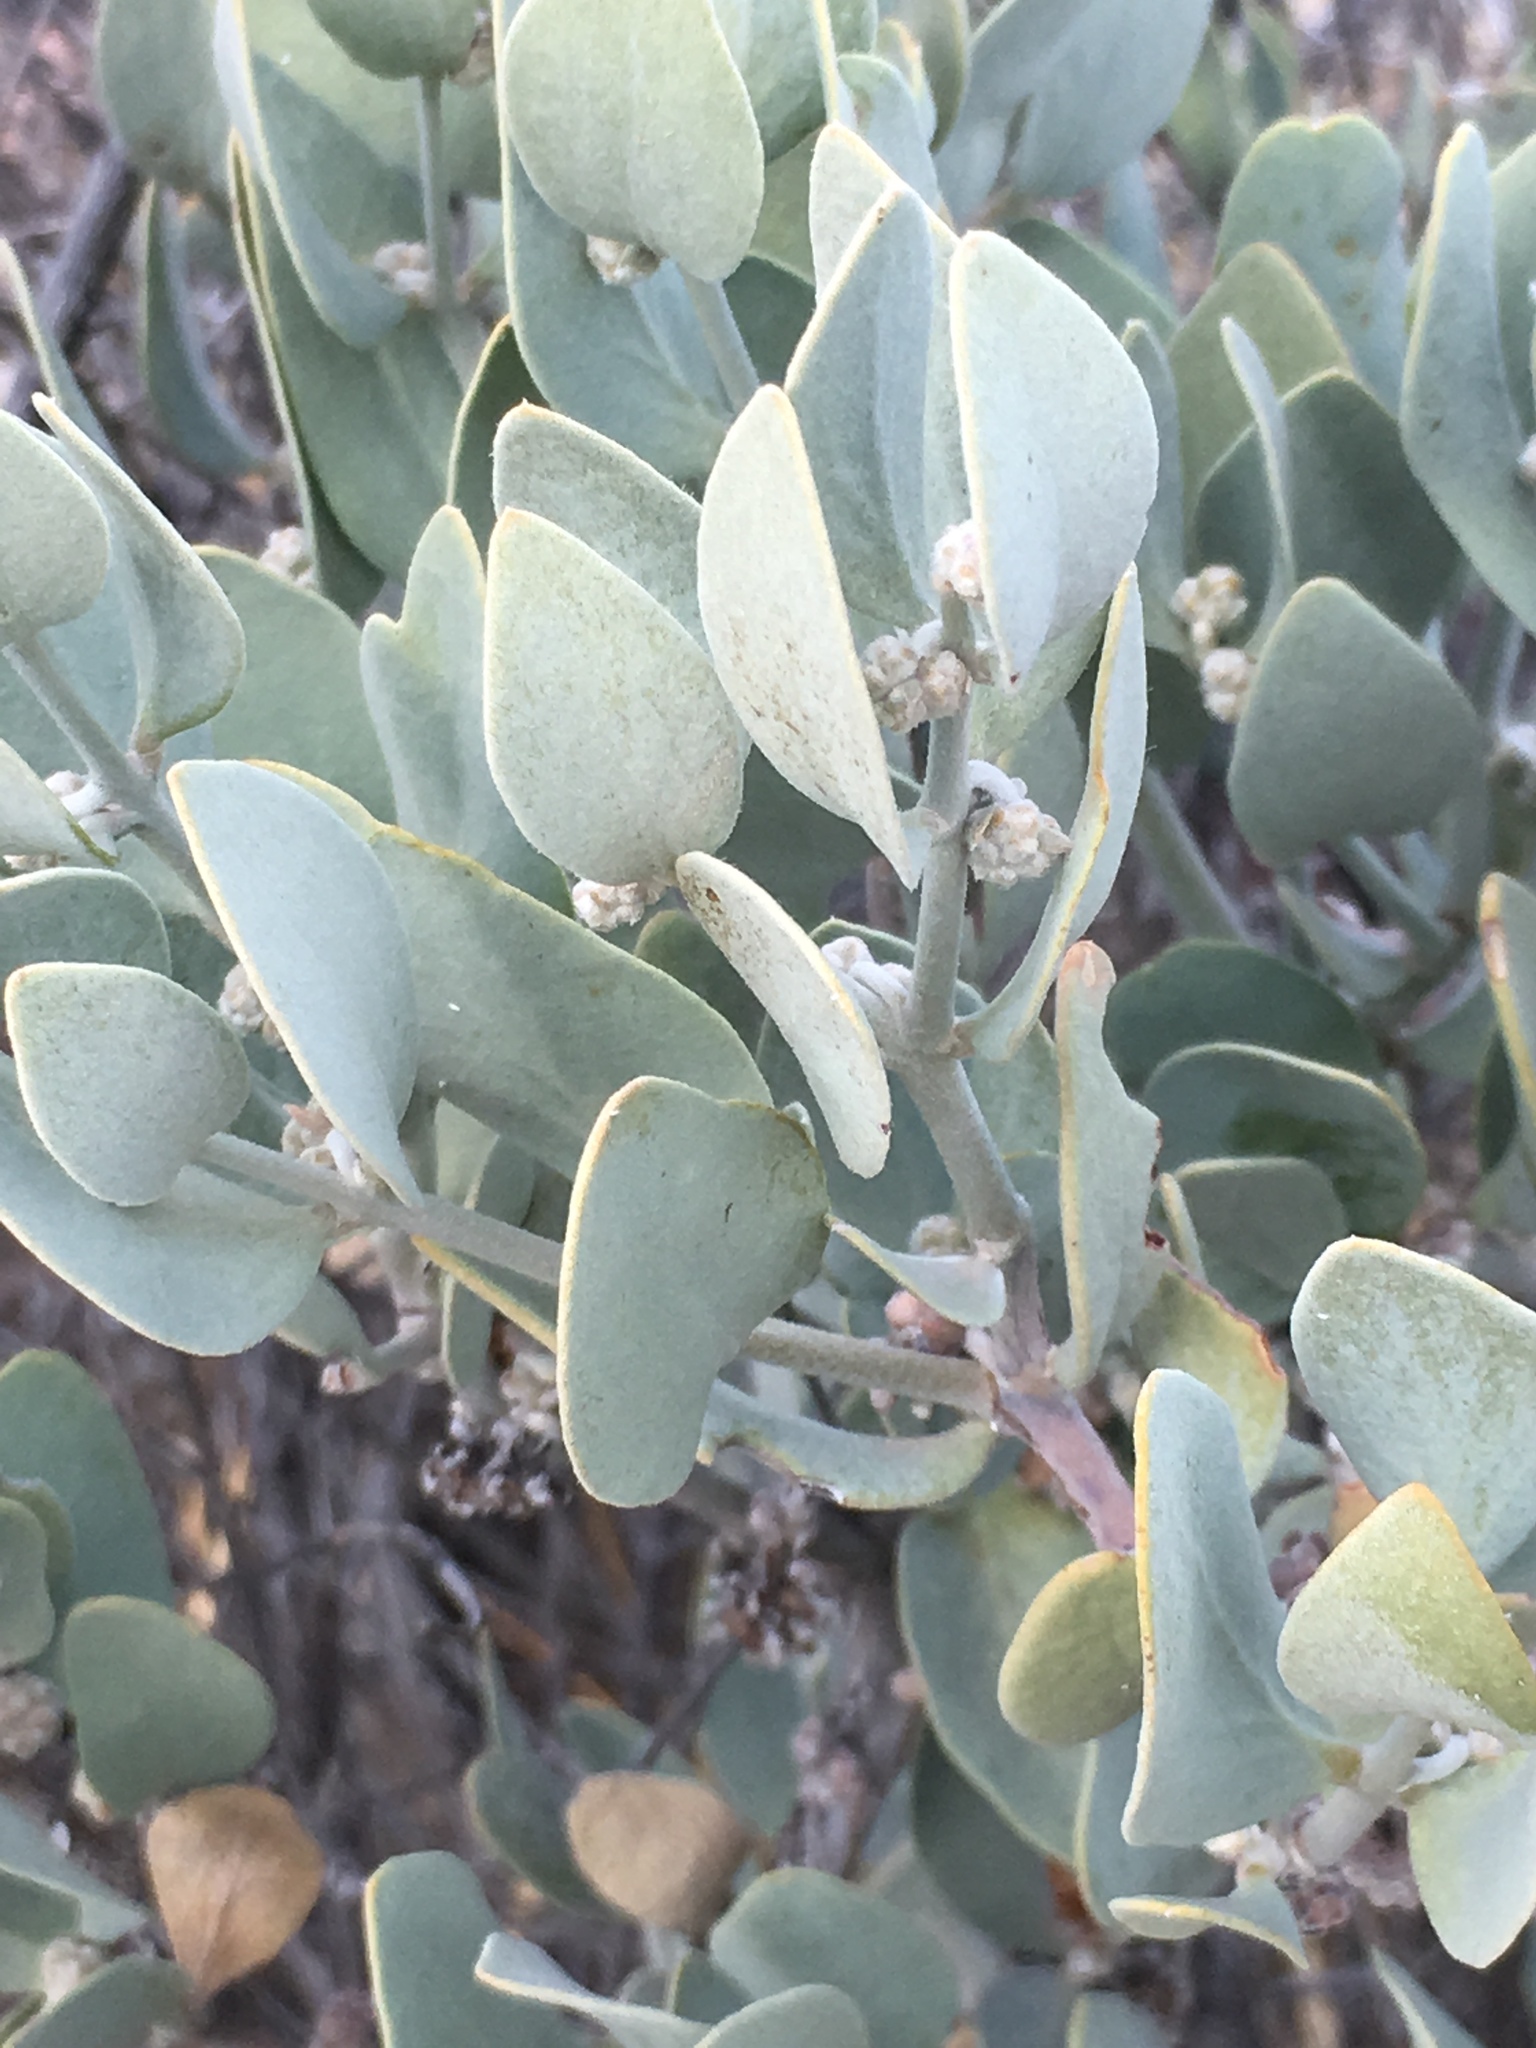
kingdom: Plantae
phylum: Tracheophyta
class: Magnoliopsida
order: Caryophyllales
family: Simmondsiaceae
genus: Simmondsia
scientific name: Simmondsia chinensis
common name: Jojoba
